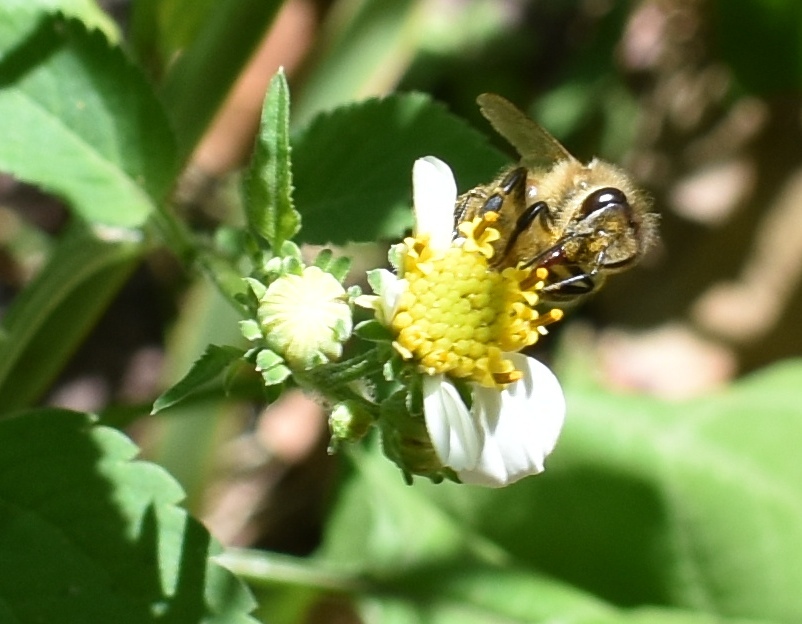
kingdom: Animalia
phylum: Arthropoda
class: Insecta
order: Hymenoptera
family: Apidae
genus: Apis
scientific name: Apis mellifera
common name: Honey bee
